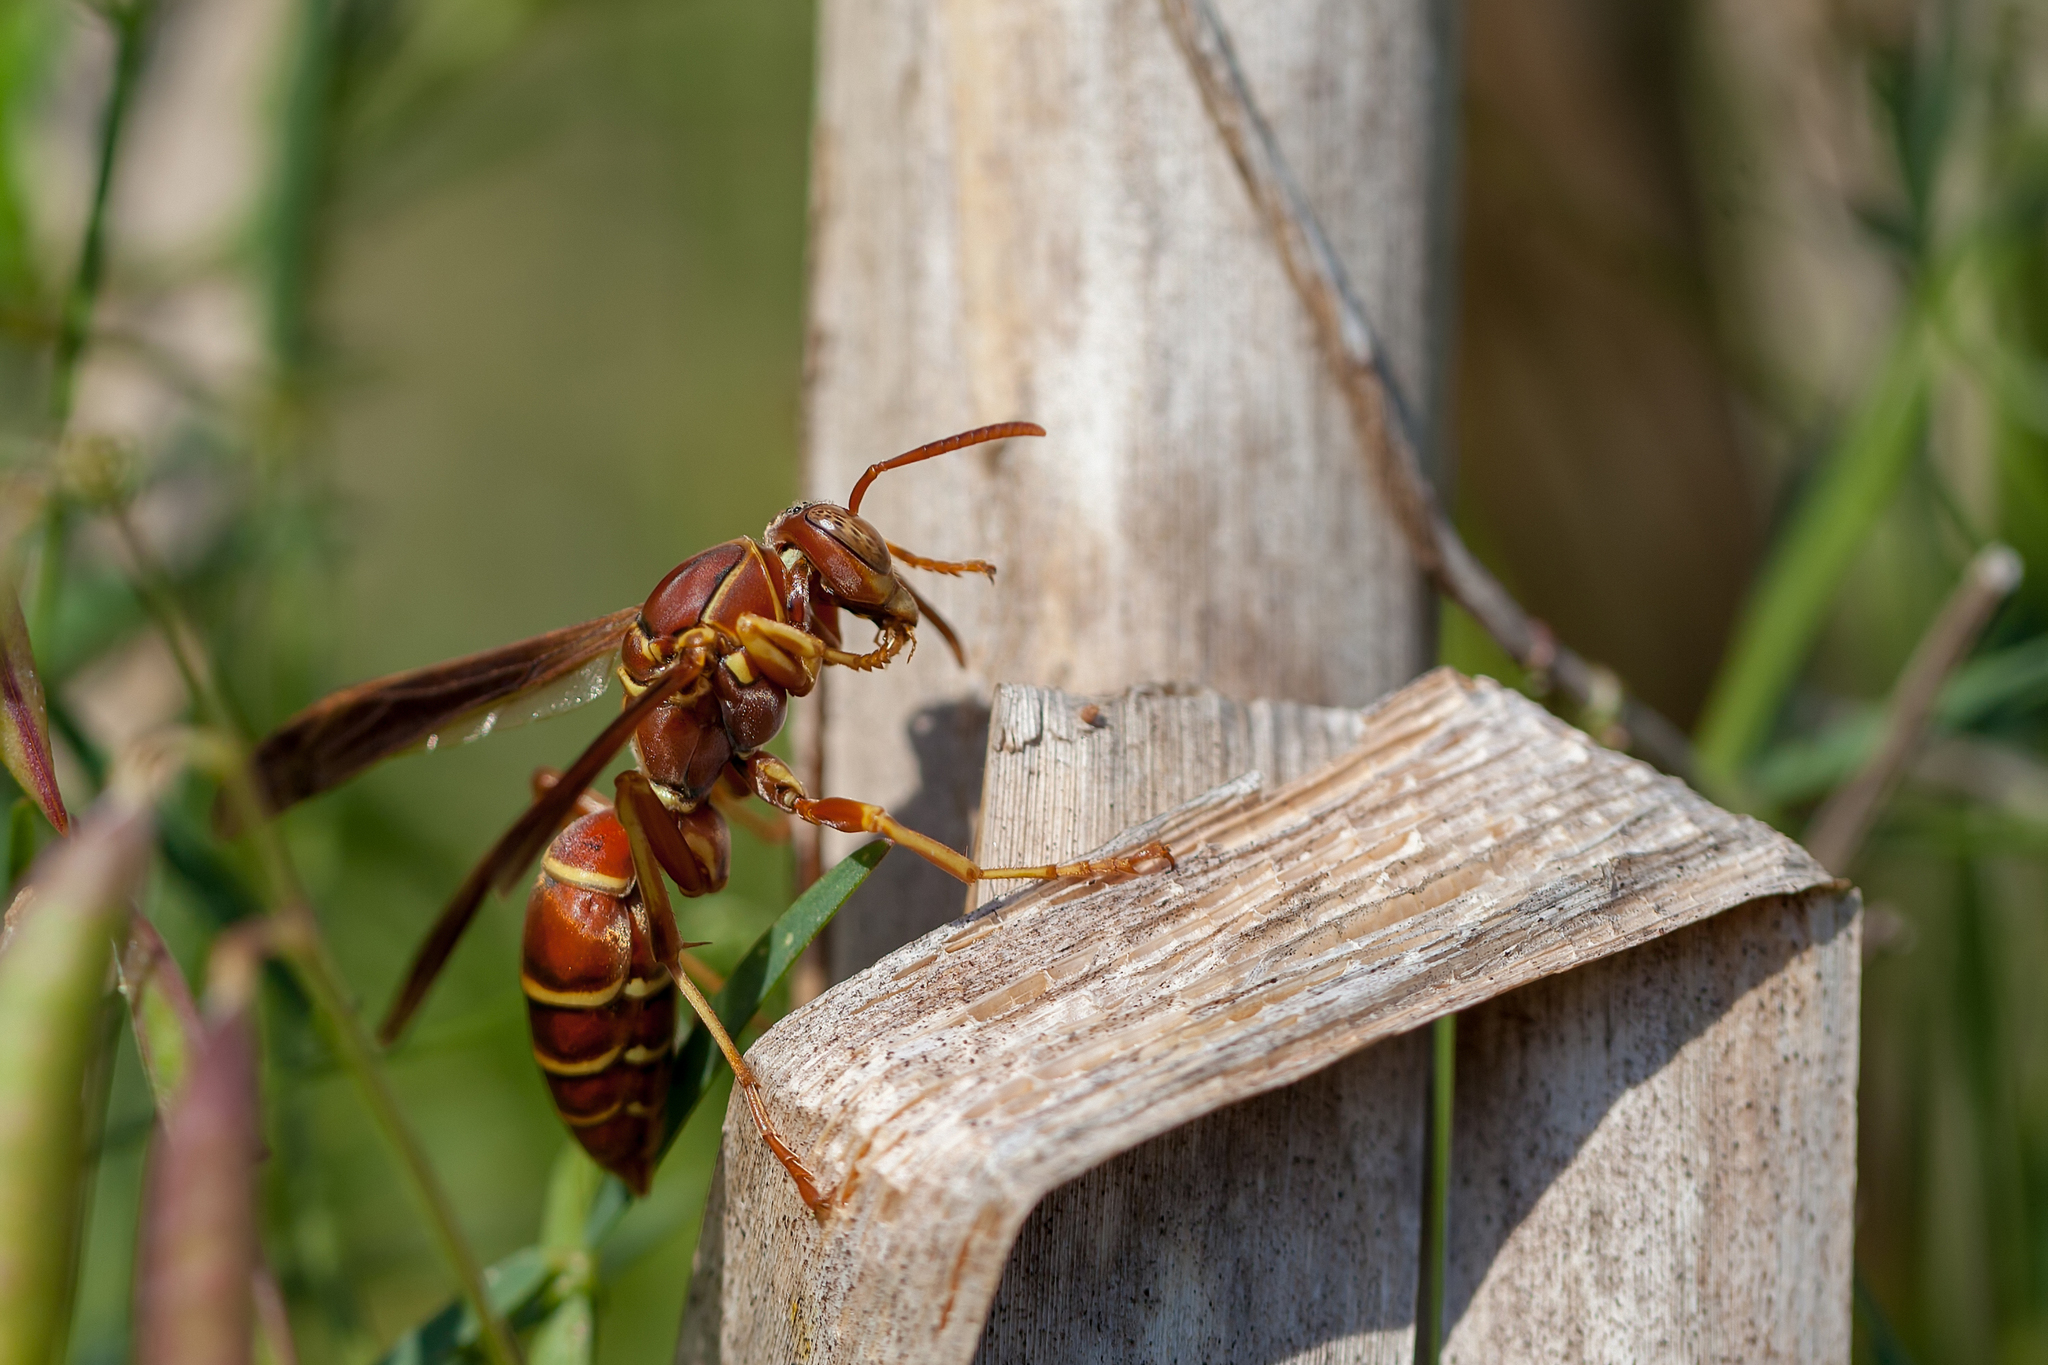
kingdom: Animalia
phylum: Arthropoda
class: Insecta
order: Hymenoptera
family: Eumenidae
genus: Polistes
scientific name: Polistes bellicosus
